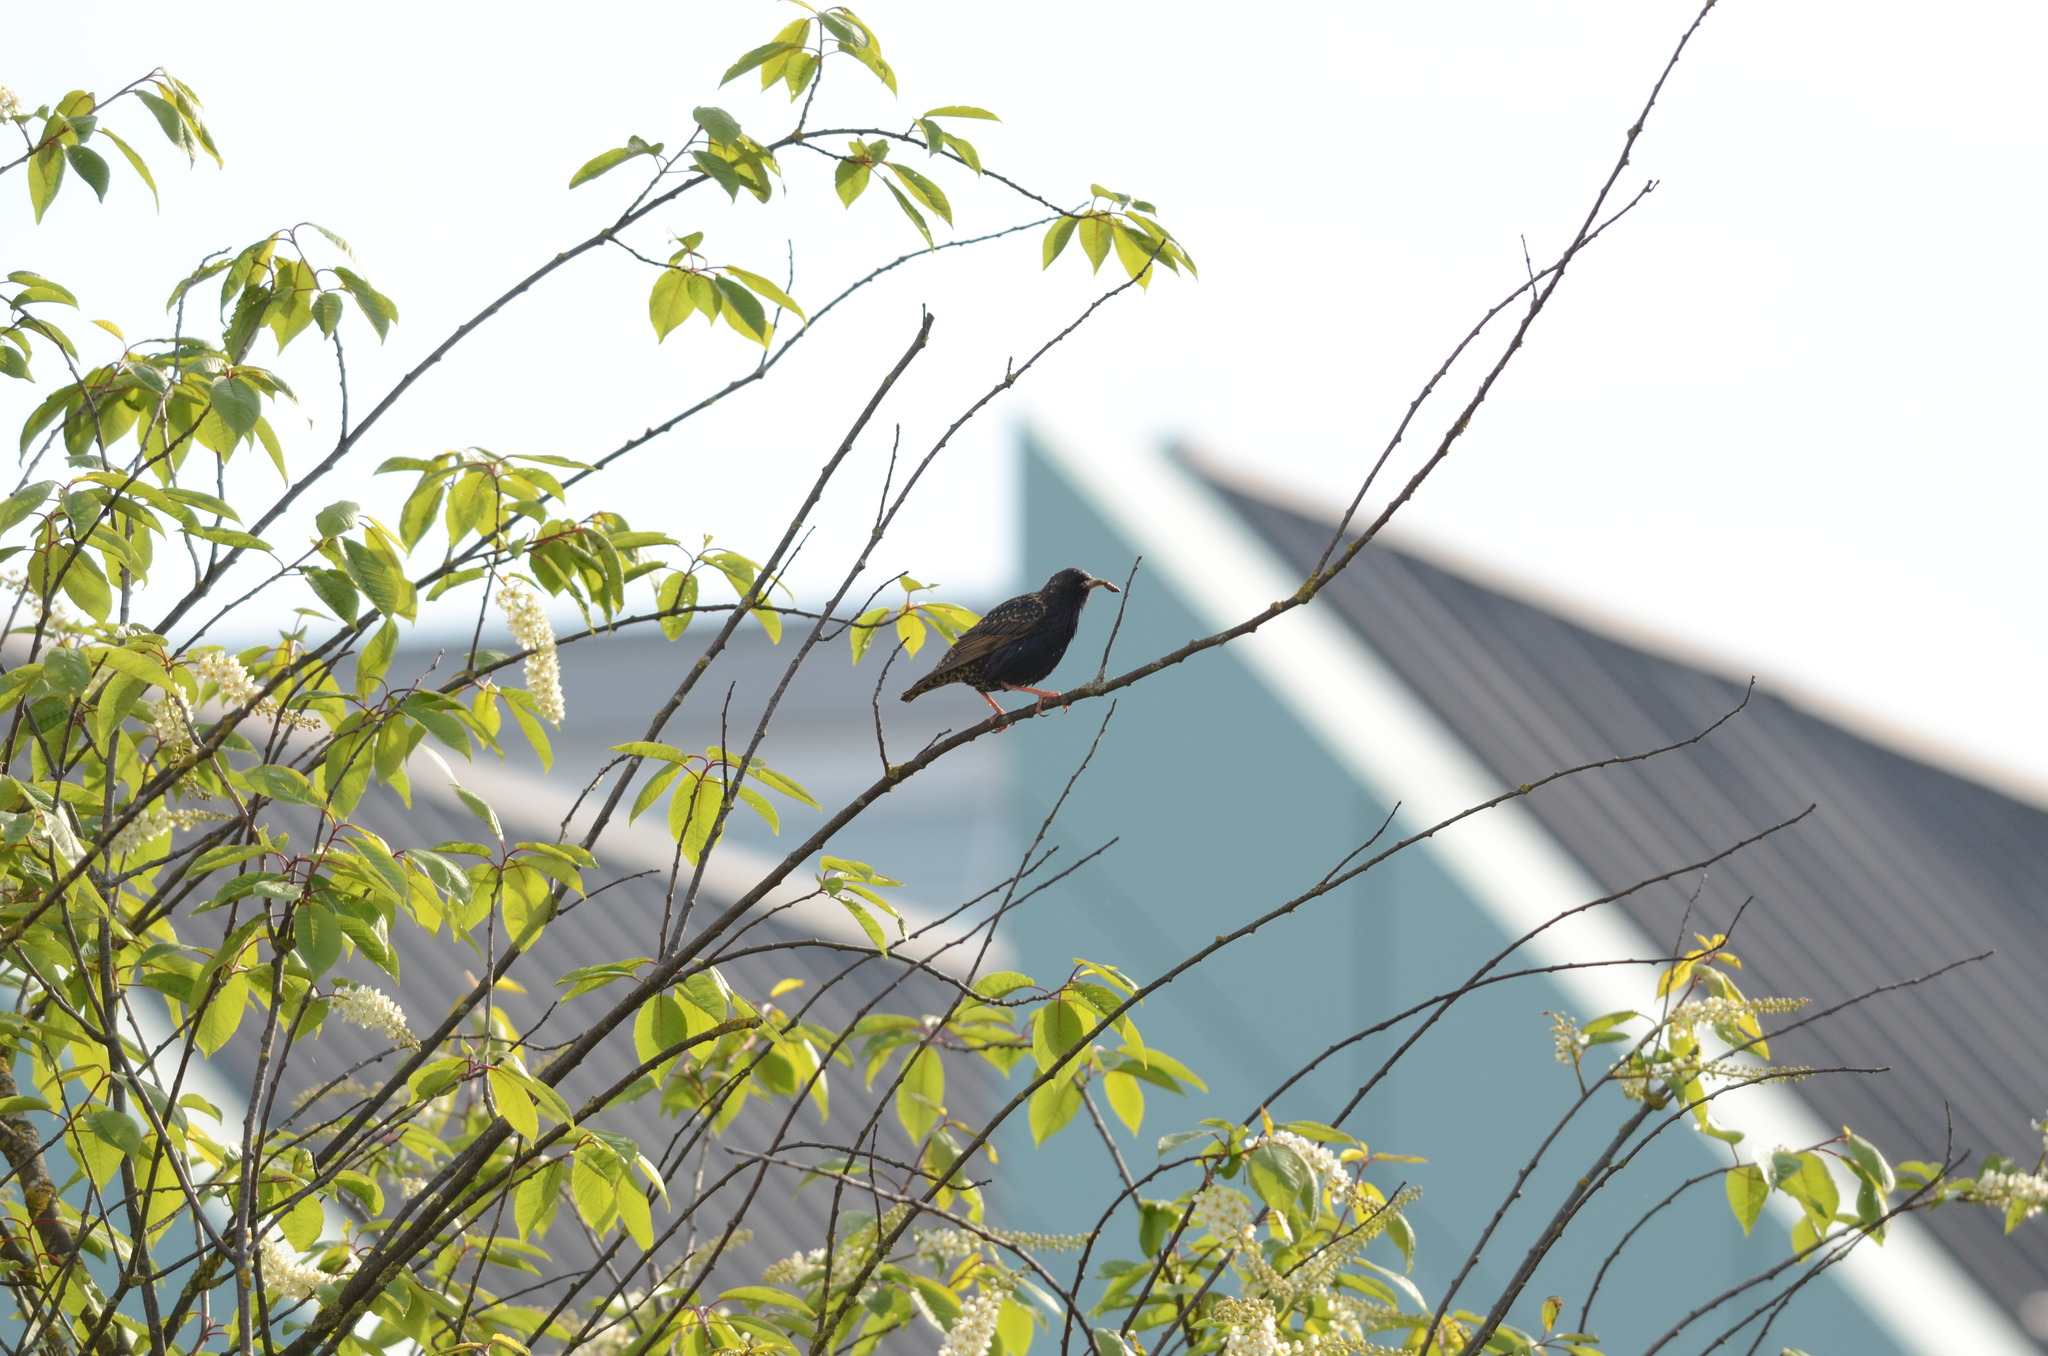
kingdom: Animalia
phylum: Chordata
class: Aves
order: Passeriformes
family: Sturnidae
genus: Sturnus
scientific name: Sturnus vulgaris
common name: Common starling
